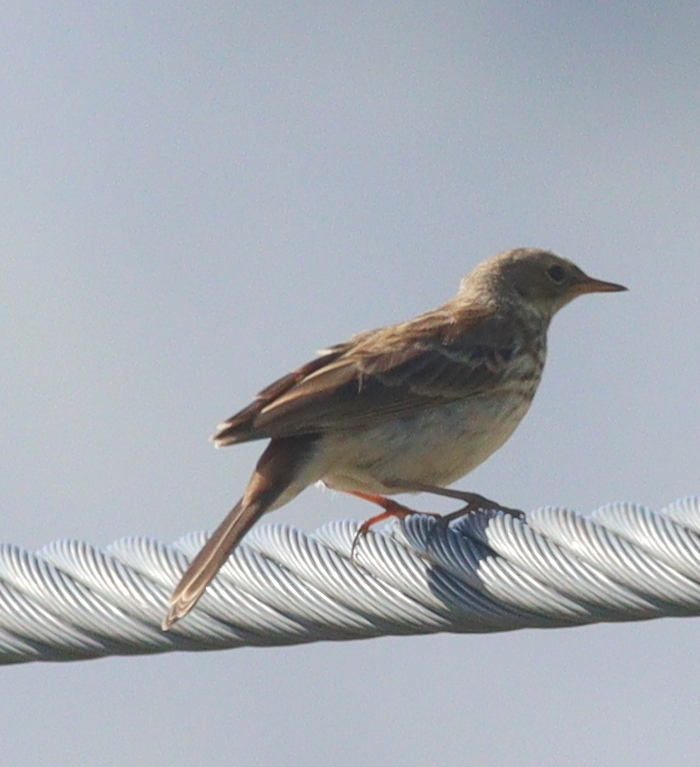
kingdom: Animalia
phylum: Chordata
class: Aves
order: Passeriformes
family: Motacillidae
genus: Anthus
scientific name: Anthus spinoletta
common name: Water pipit
